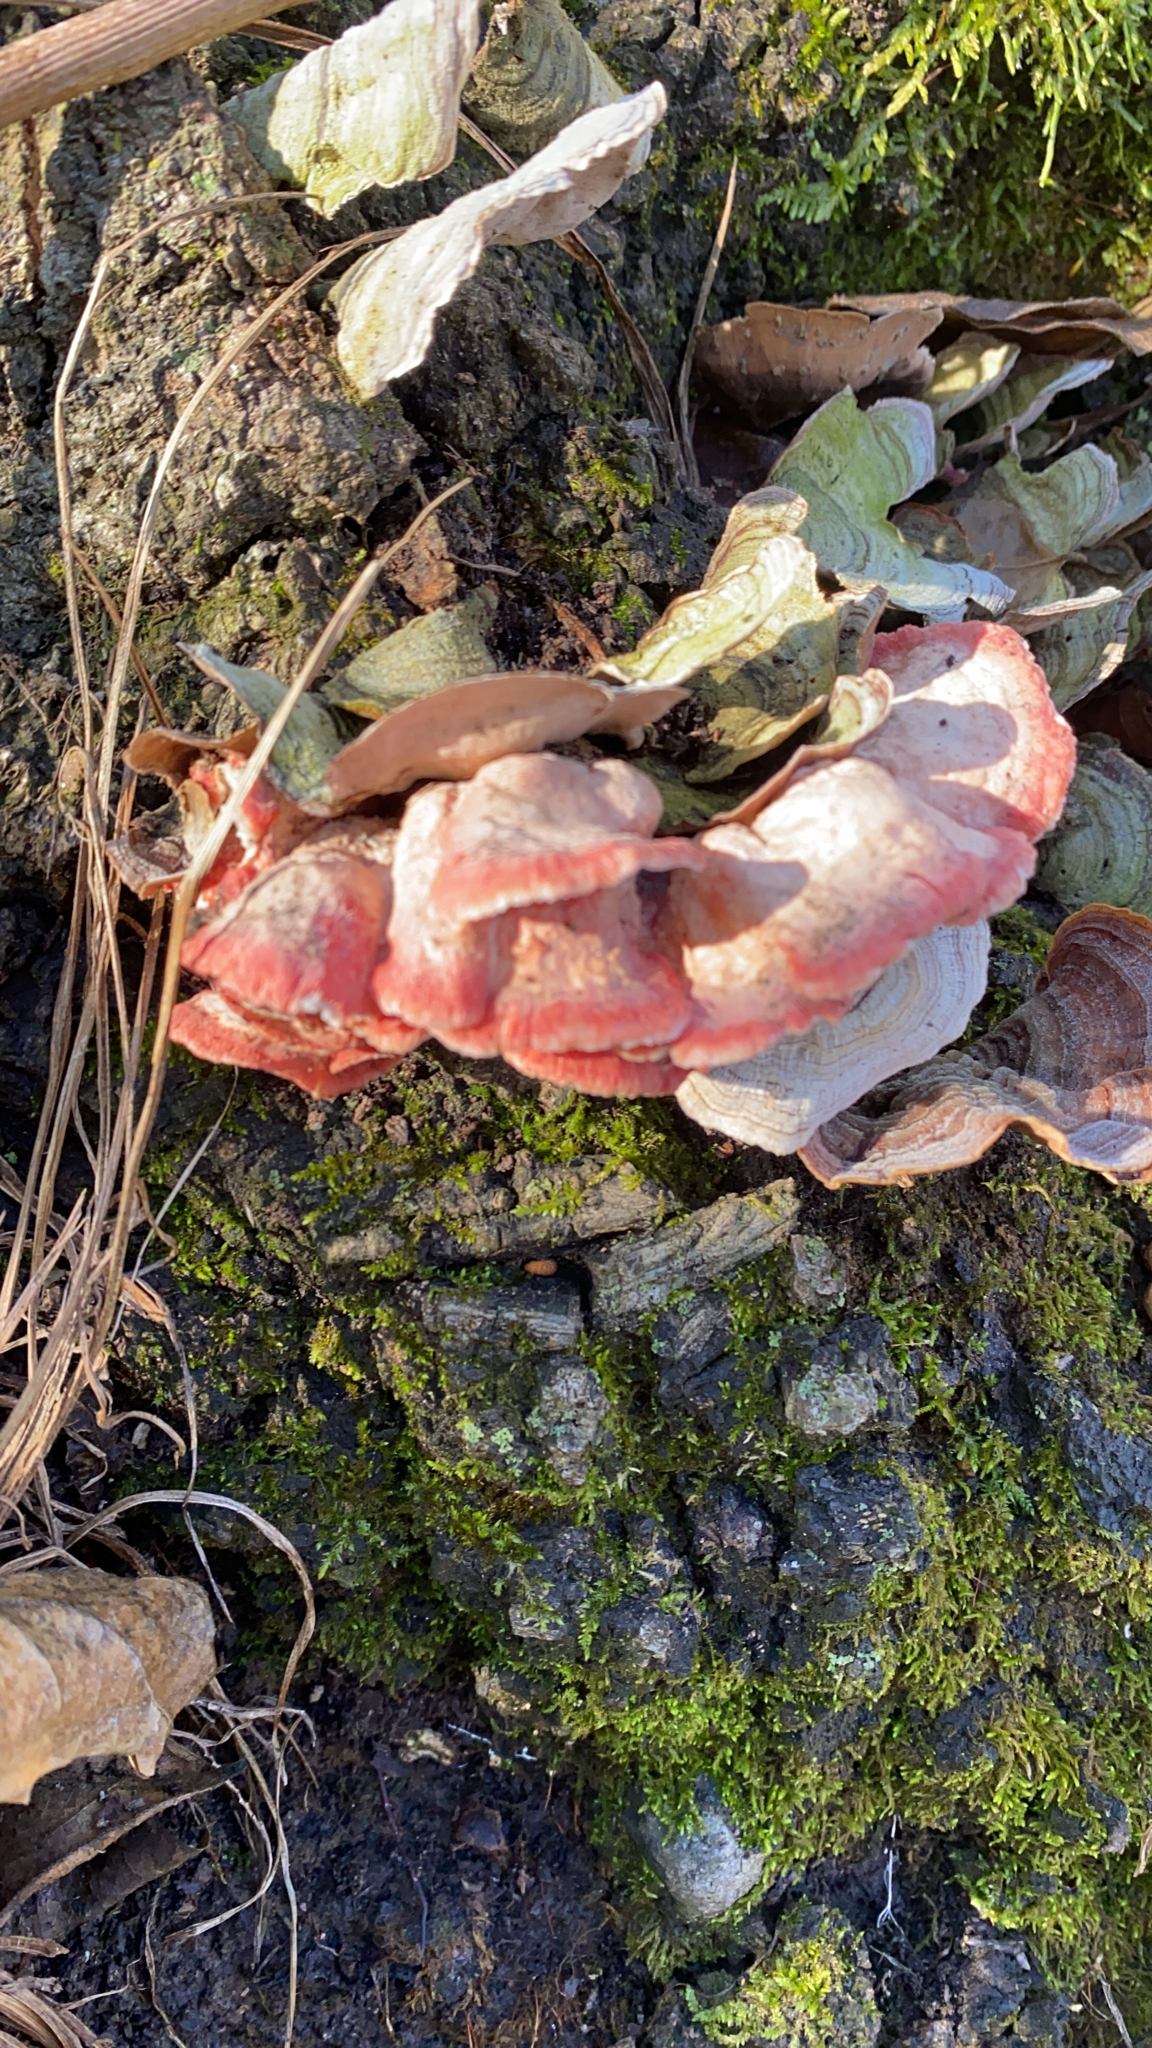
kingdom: Fungi
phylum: Basidiomycota
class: Agaricomycetes
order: Polyporales
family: Irpicaceae
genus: Byssomerulius
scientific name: Byssomerulius incarnatus
